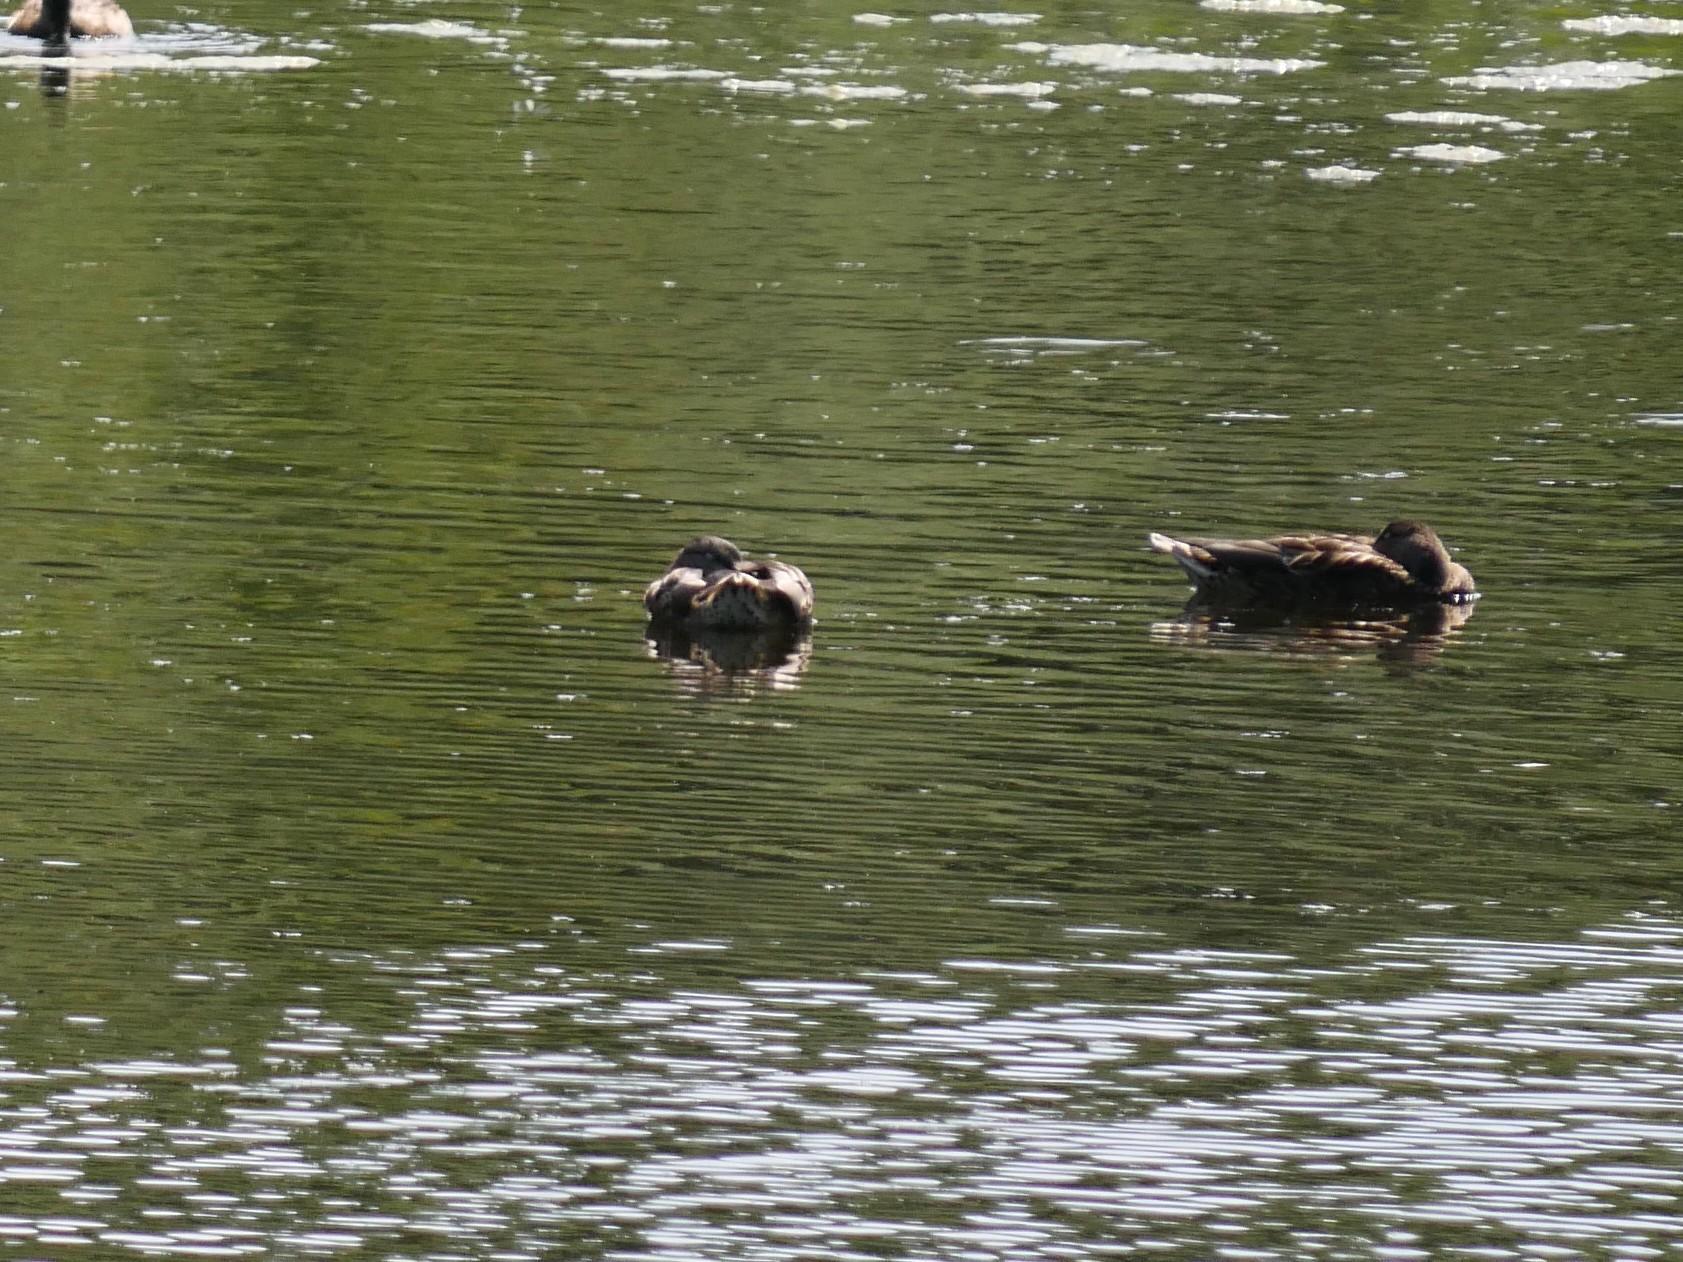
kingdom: Animalia
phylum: Chordata
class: Aves
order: Anseriformes
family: Anatidae
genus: Anas
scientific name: Anas platyrhynchos
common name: Mallard
